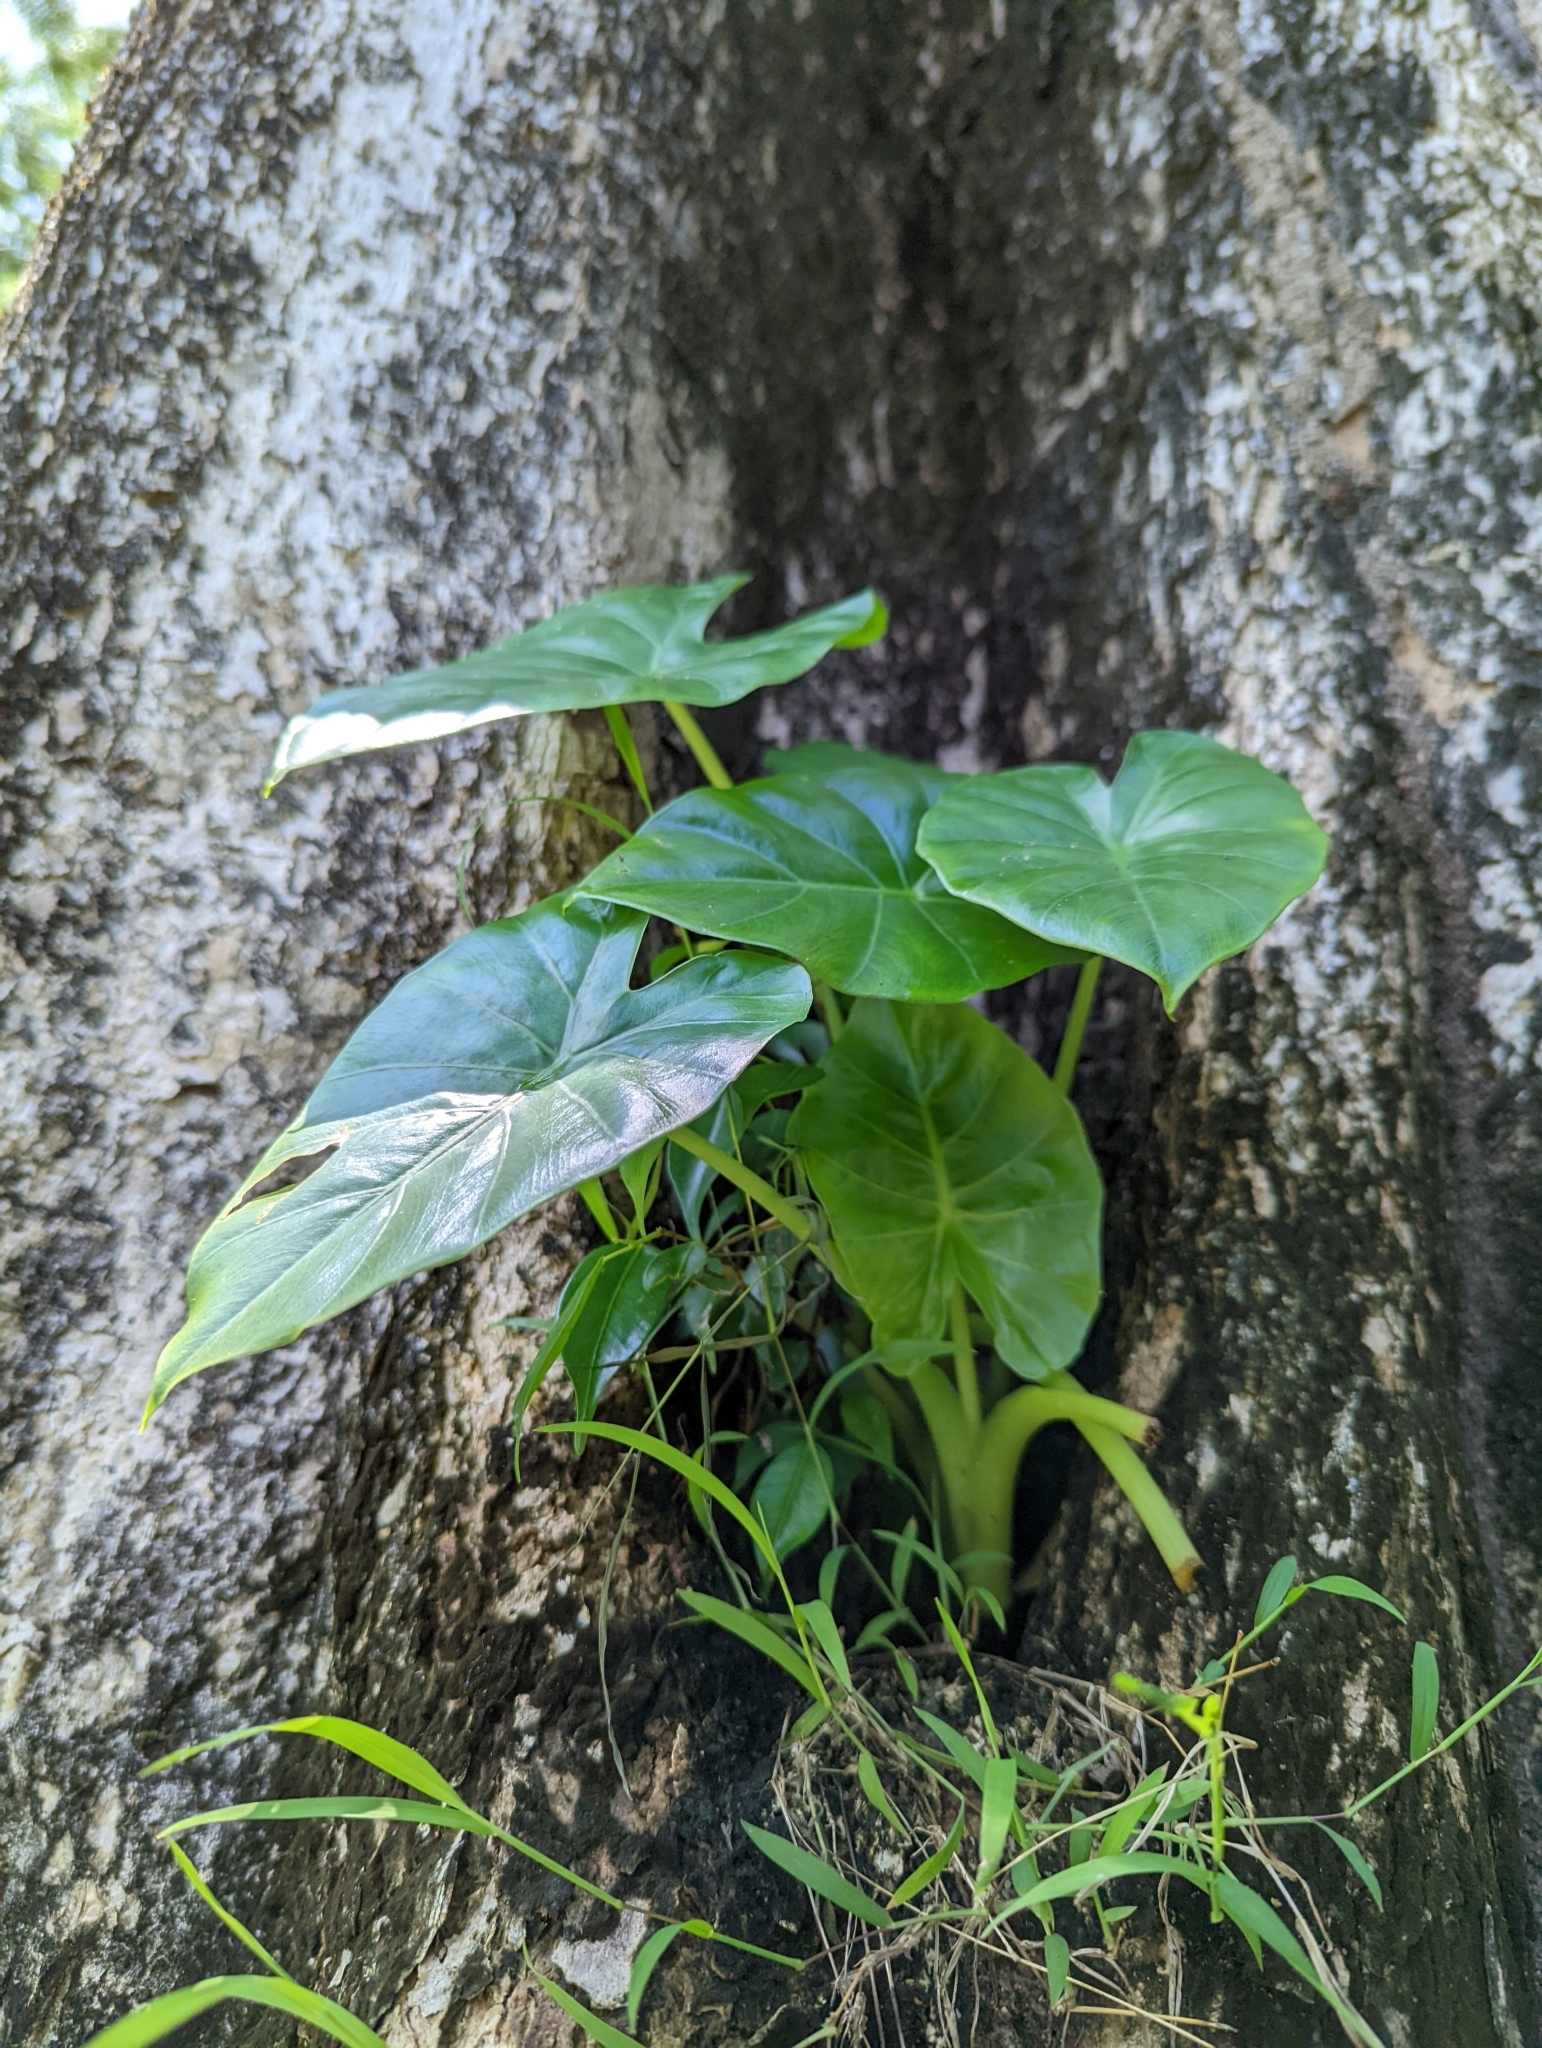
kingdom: Plantae
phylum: Tracheophyta
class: Liliopsida
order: Alismatales
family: Araceae
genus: Alocasia
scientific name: Alocasia odora
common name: Asian taro
